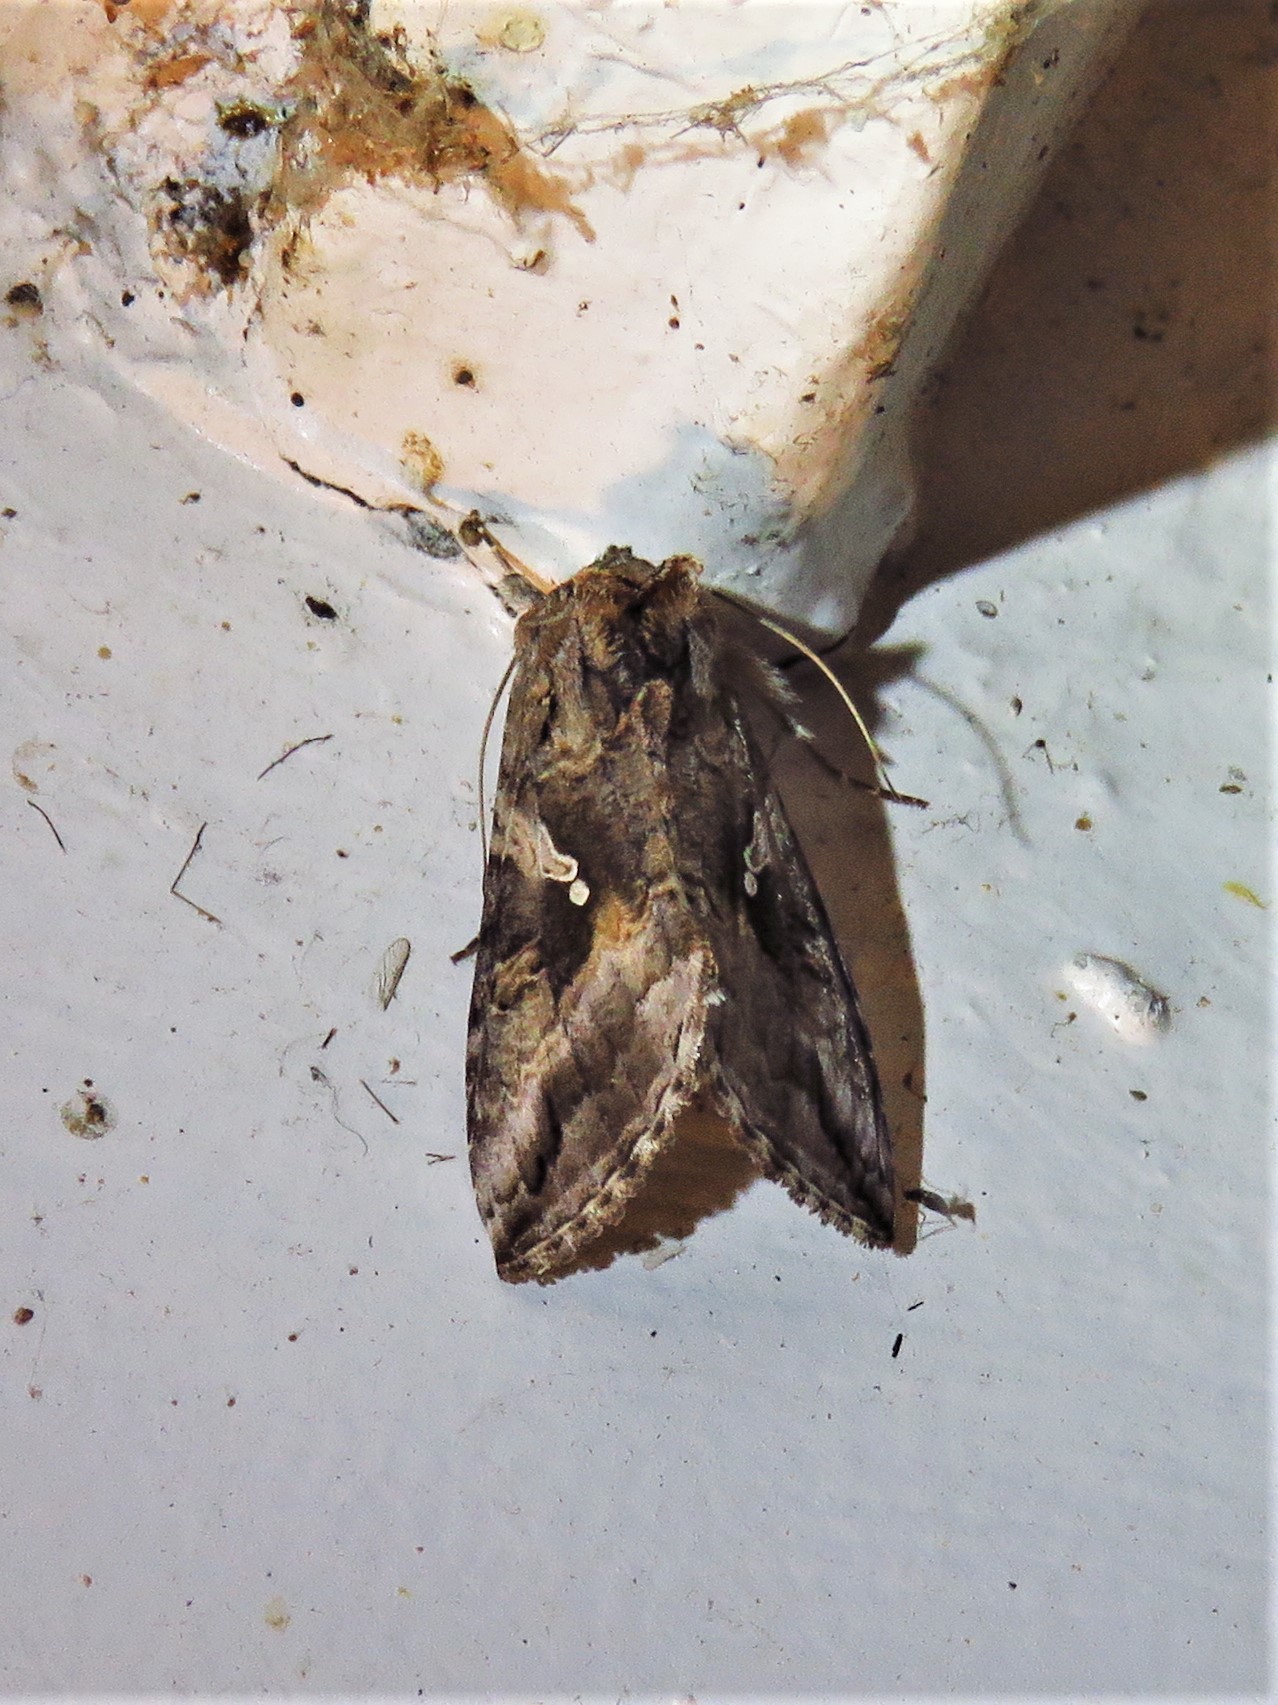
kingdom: Animalia
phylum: Arthropoda
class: Insecta
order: Lepidoptera
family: Noctuidae
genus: Rachiplusia
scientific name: Rachiplusia ou
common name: Gray looper moth
